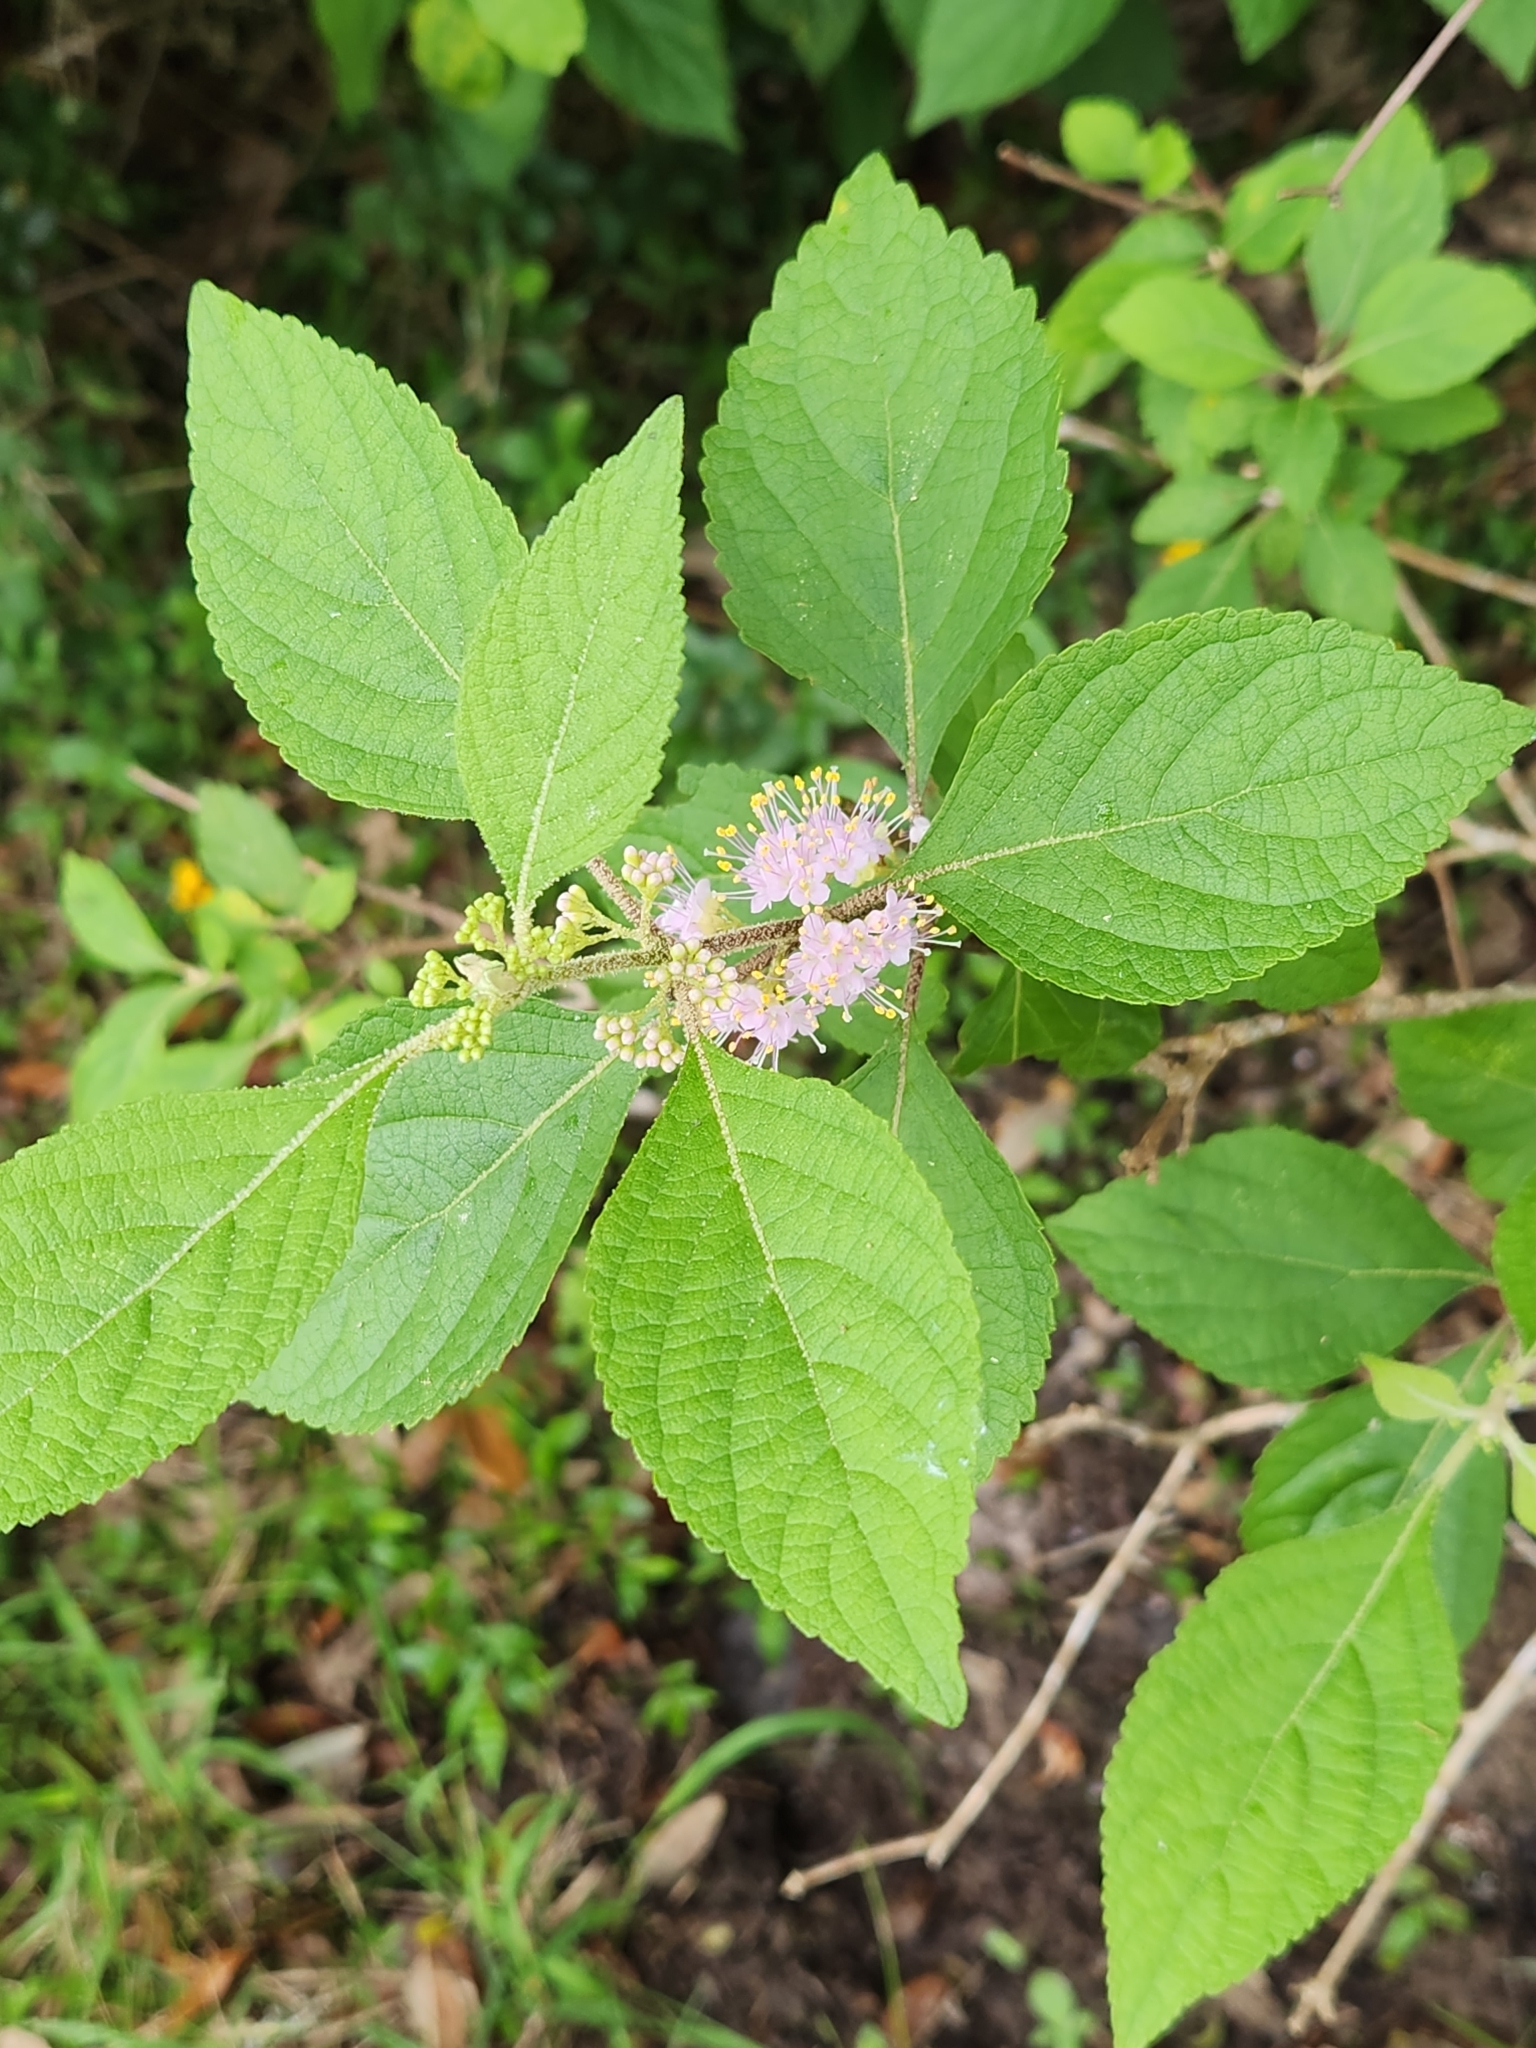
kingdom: Plantae
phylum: Tracheophyta
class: Magnoliopsida
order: Lamiales
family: Lamiaceae
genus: Callicarpa
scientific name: Callicarpa americana
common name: American beautyberry
